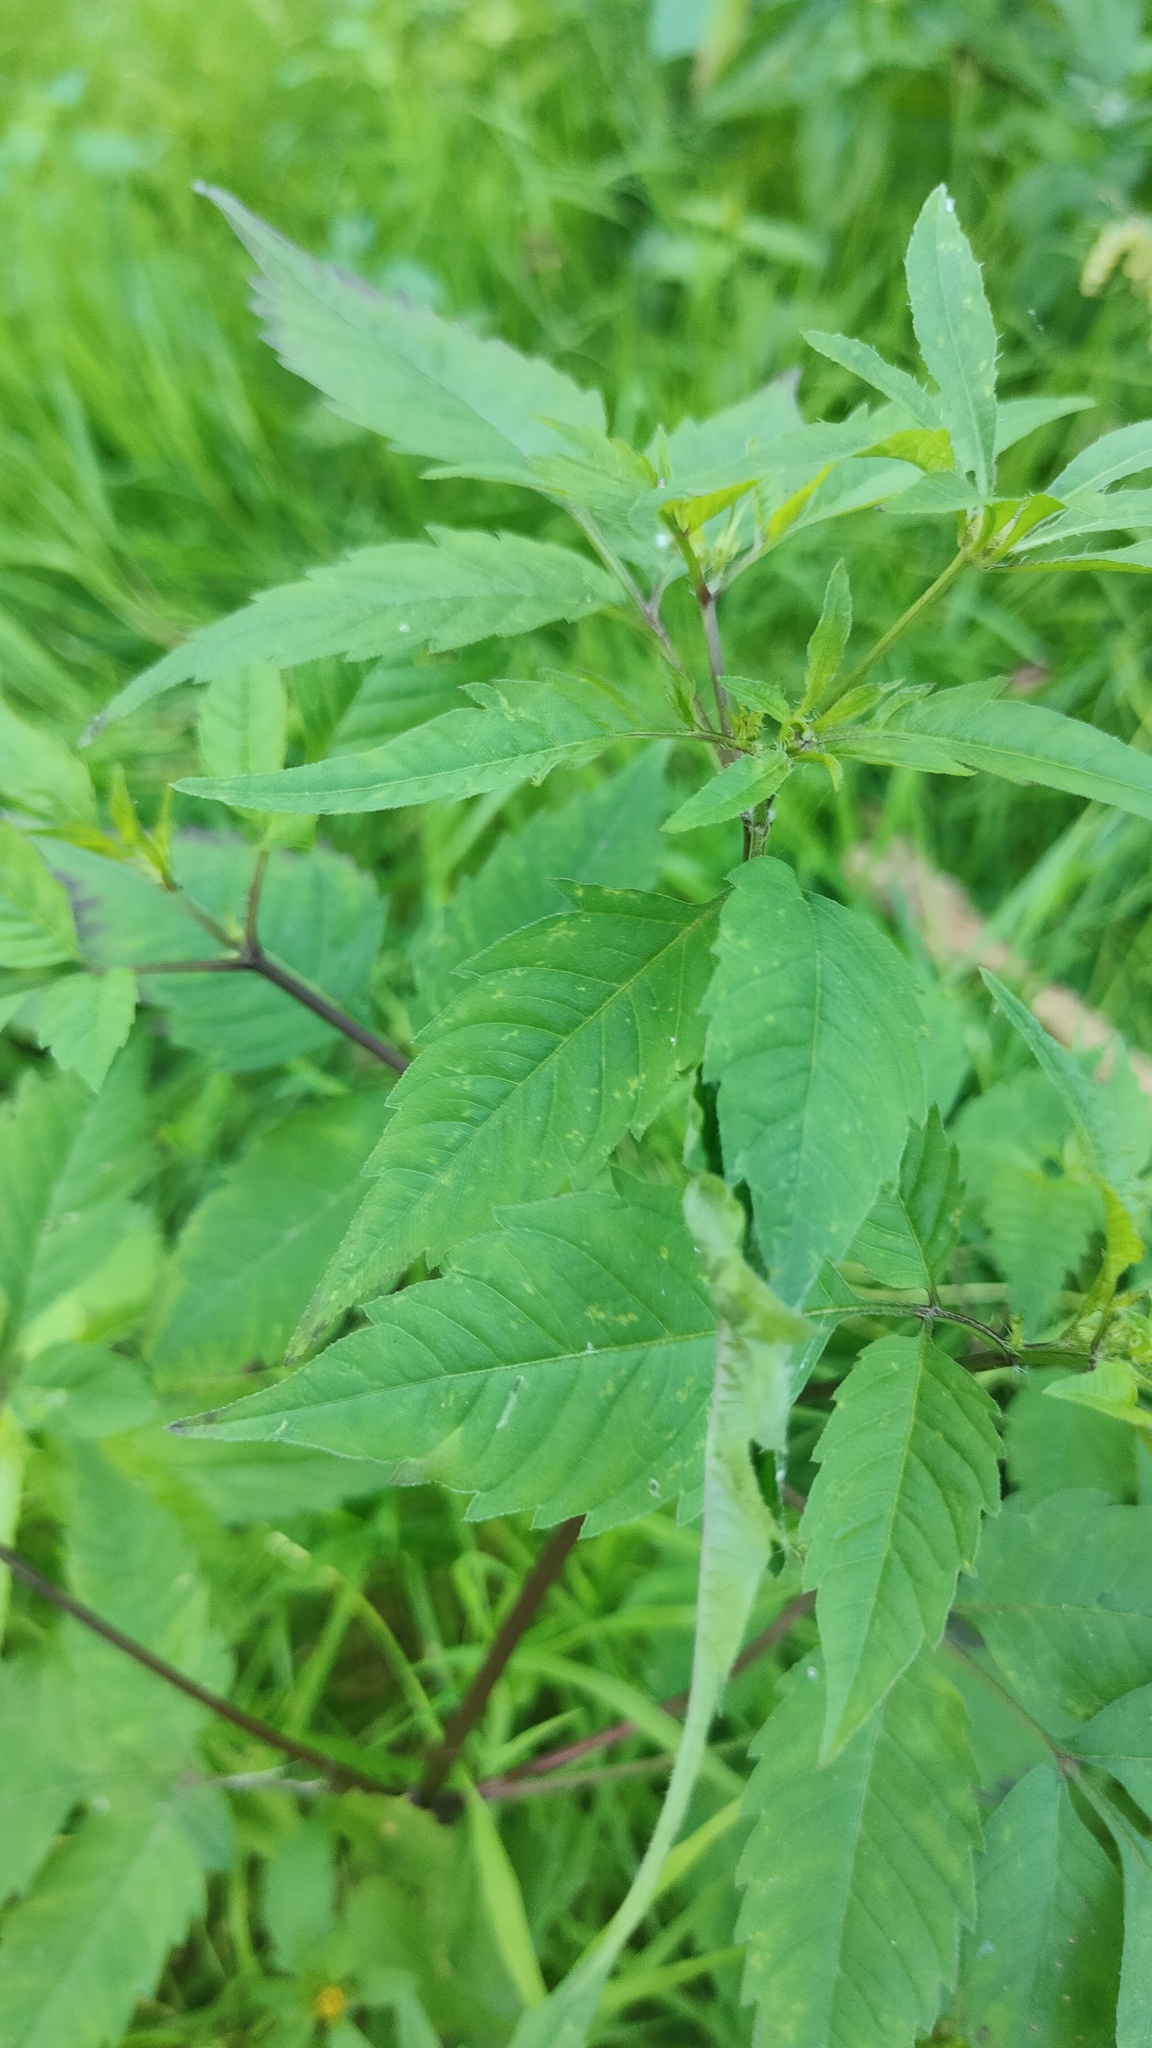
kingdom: Plantae
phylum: Tracheophyta
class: Magnoliopsida
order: Asterales
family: Asteraceae
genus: Bidens
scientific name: Bidens frondosa
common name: Beggarticks
